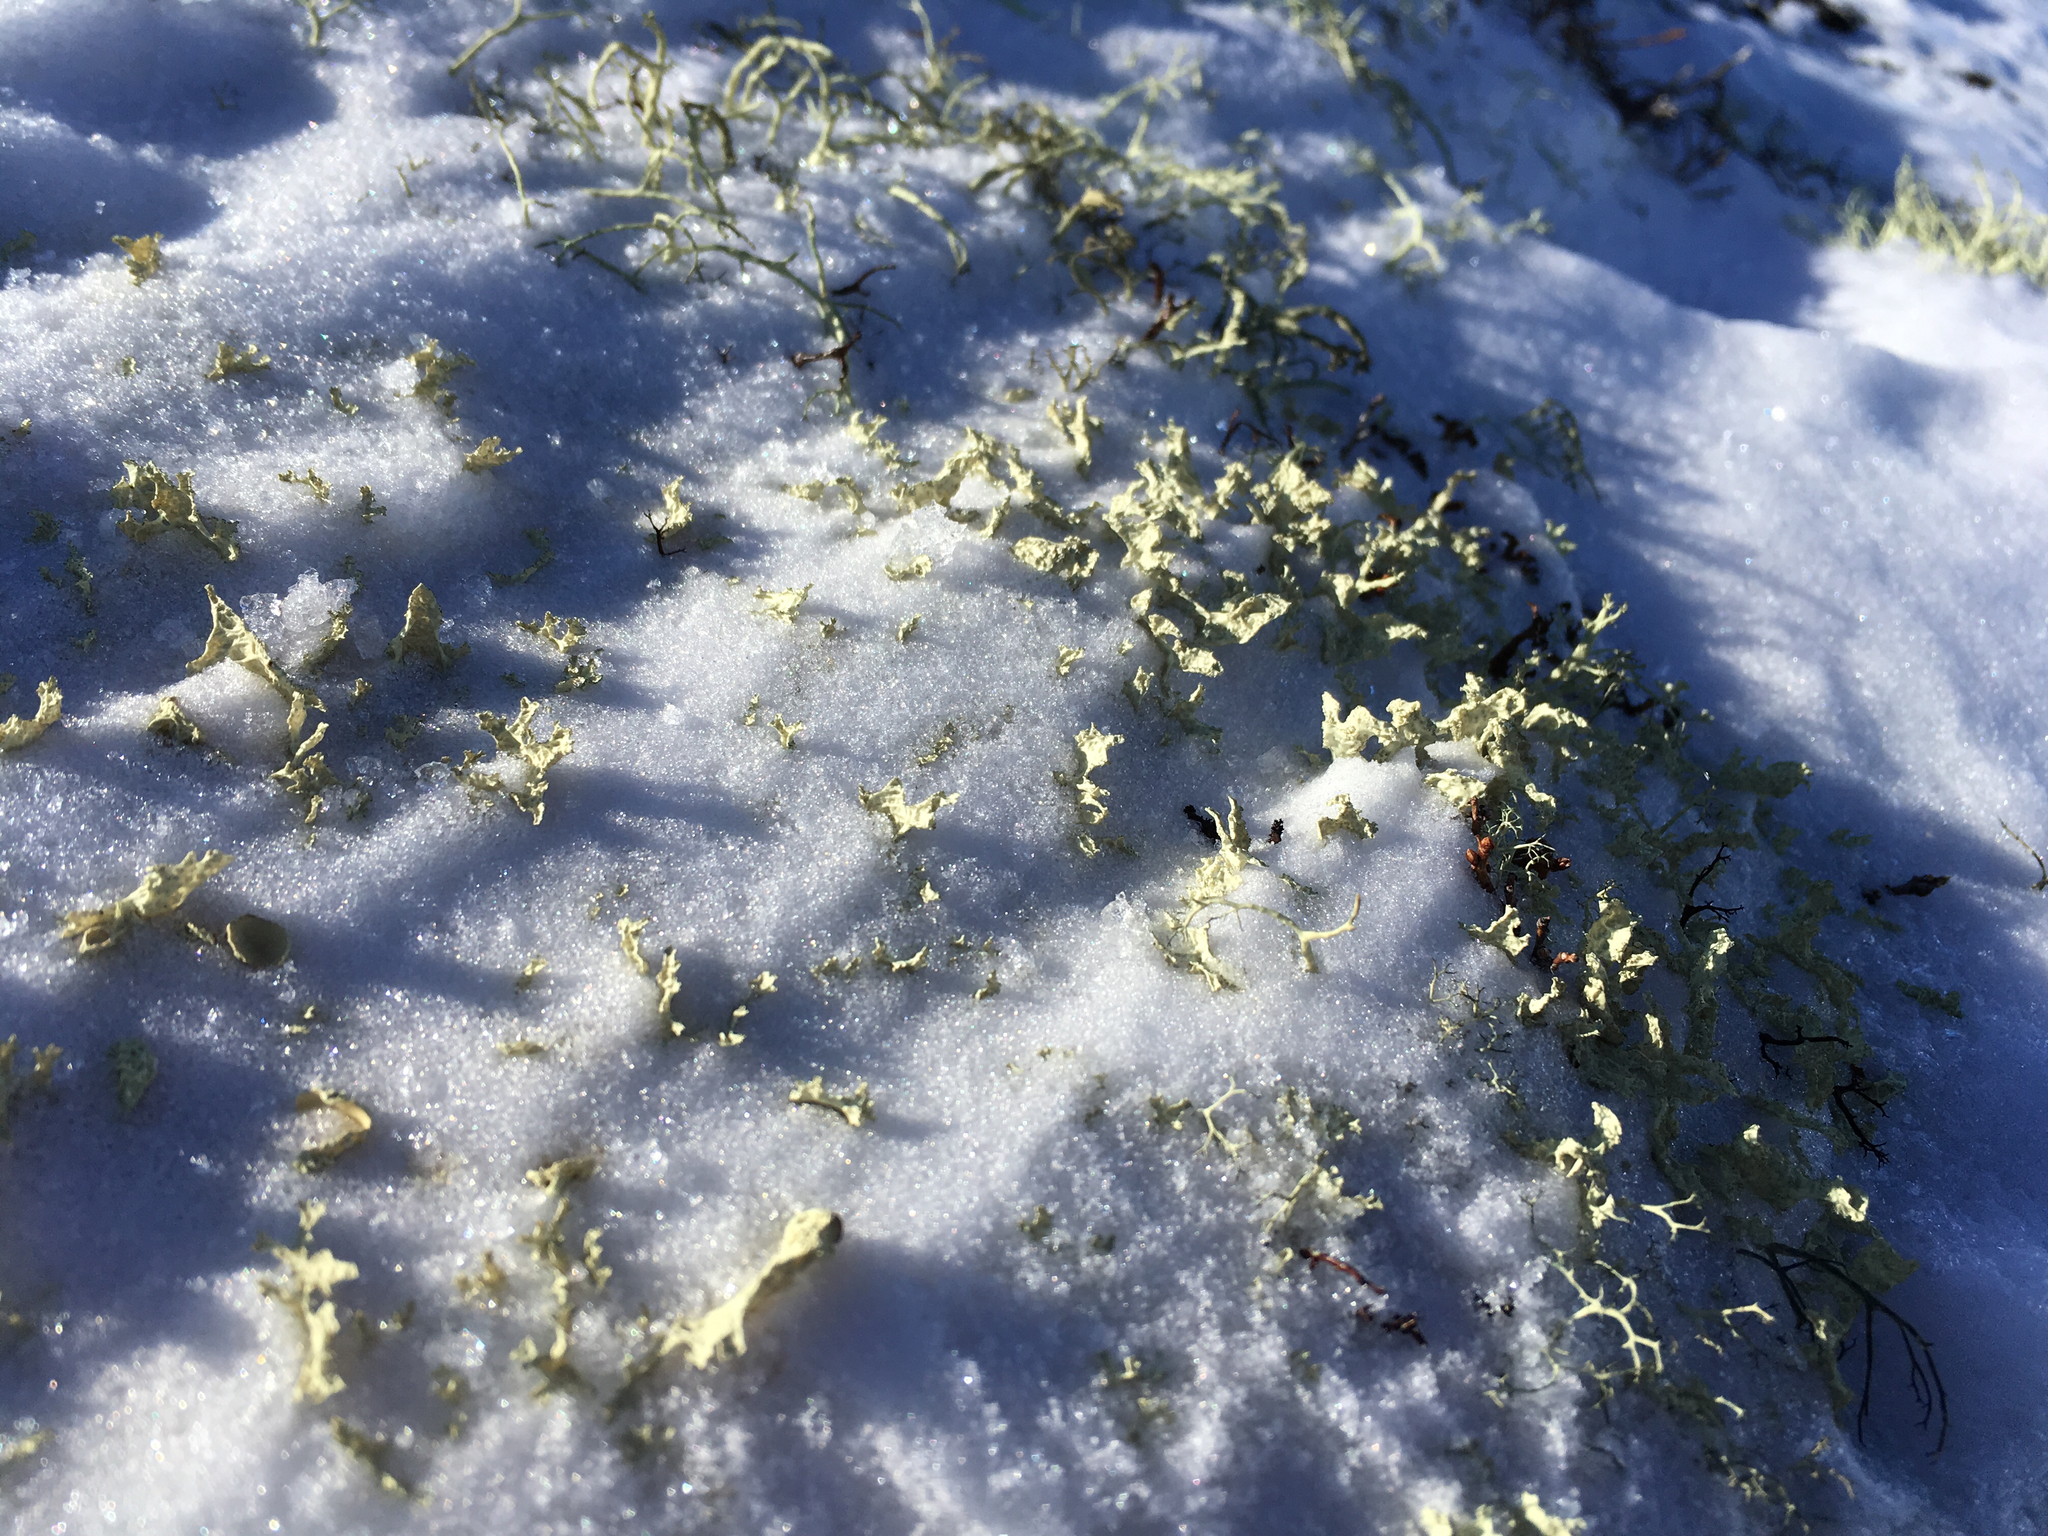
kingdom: Fungi
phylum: Ascomycota
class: Lecanoromycetes
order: Lecanorales
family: Parmeliaceae
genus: Nephromopsis
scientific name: Nephromopsis nivalis
